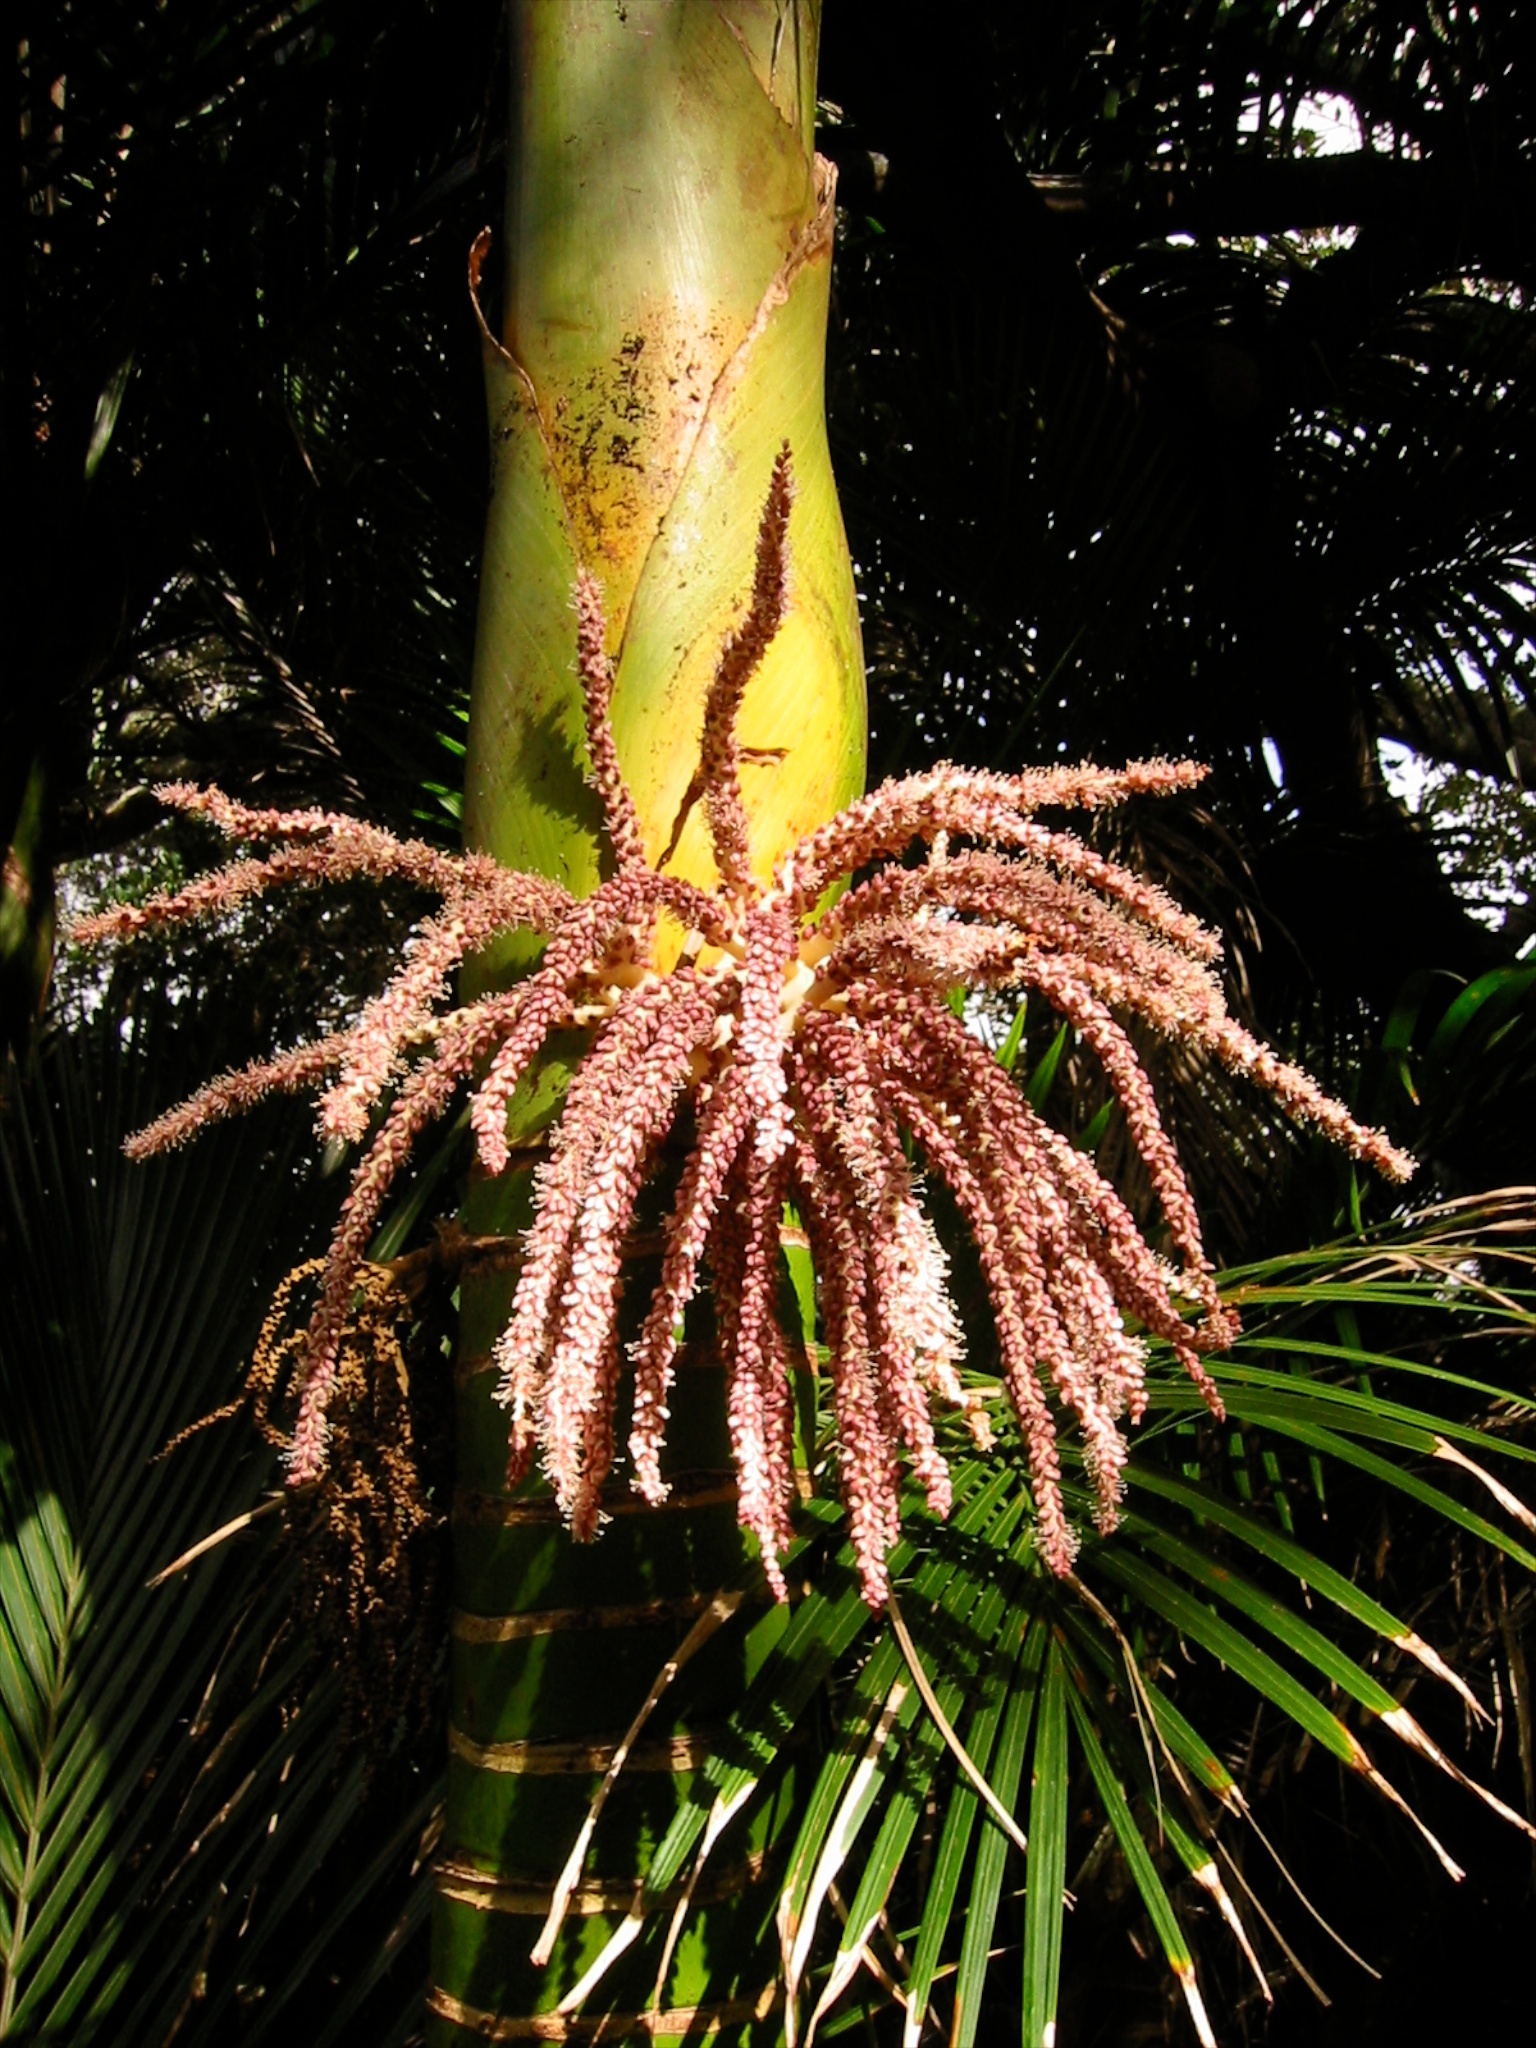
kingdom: Plantae
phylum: Tracheophyta
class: Liliopsida
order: Arecales
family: Arecaceae
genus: Rhopalostylis
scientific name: Rhopalostylis sapida
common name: Feather-duster palm
